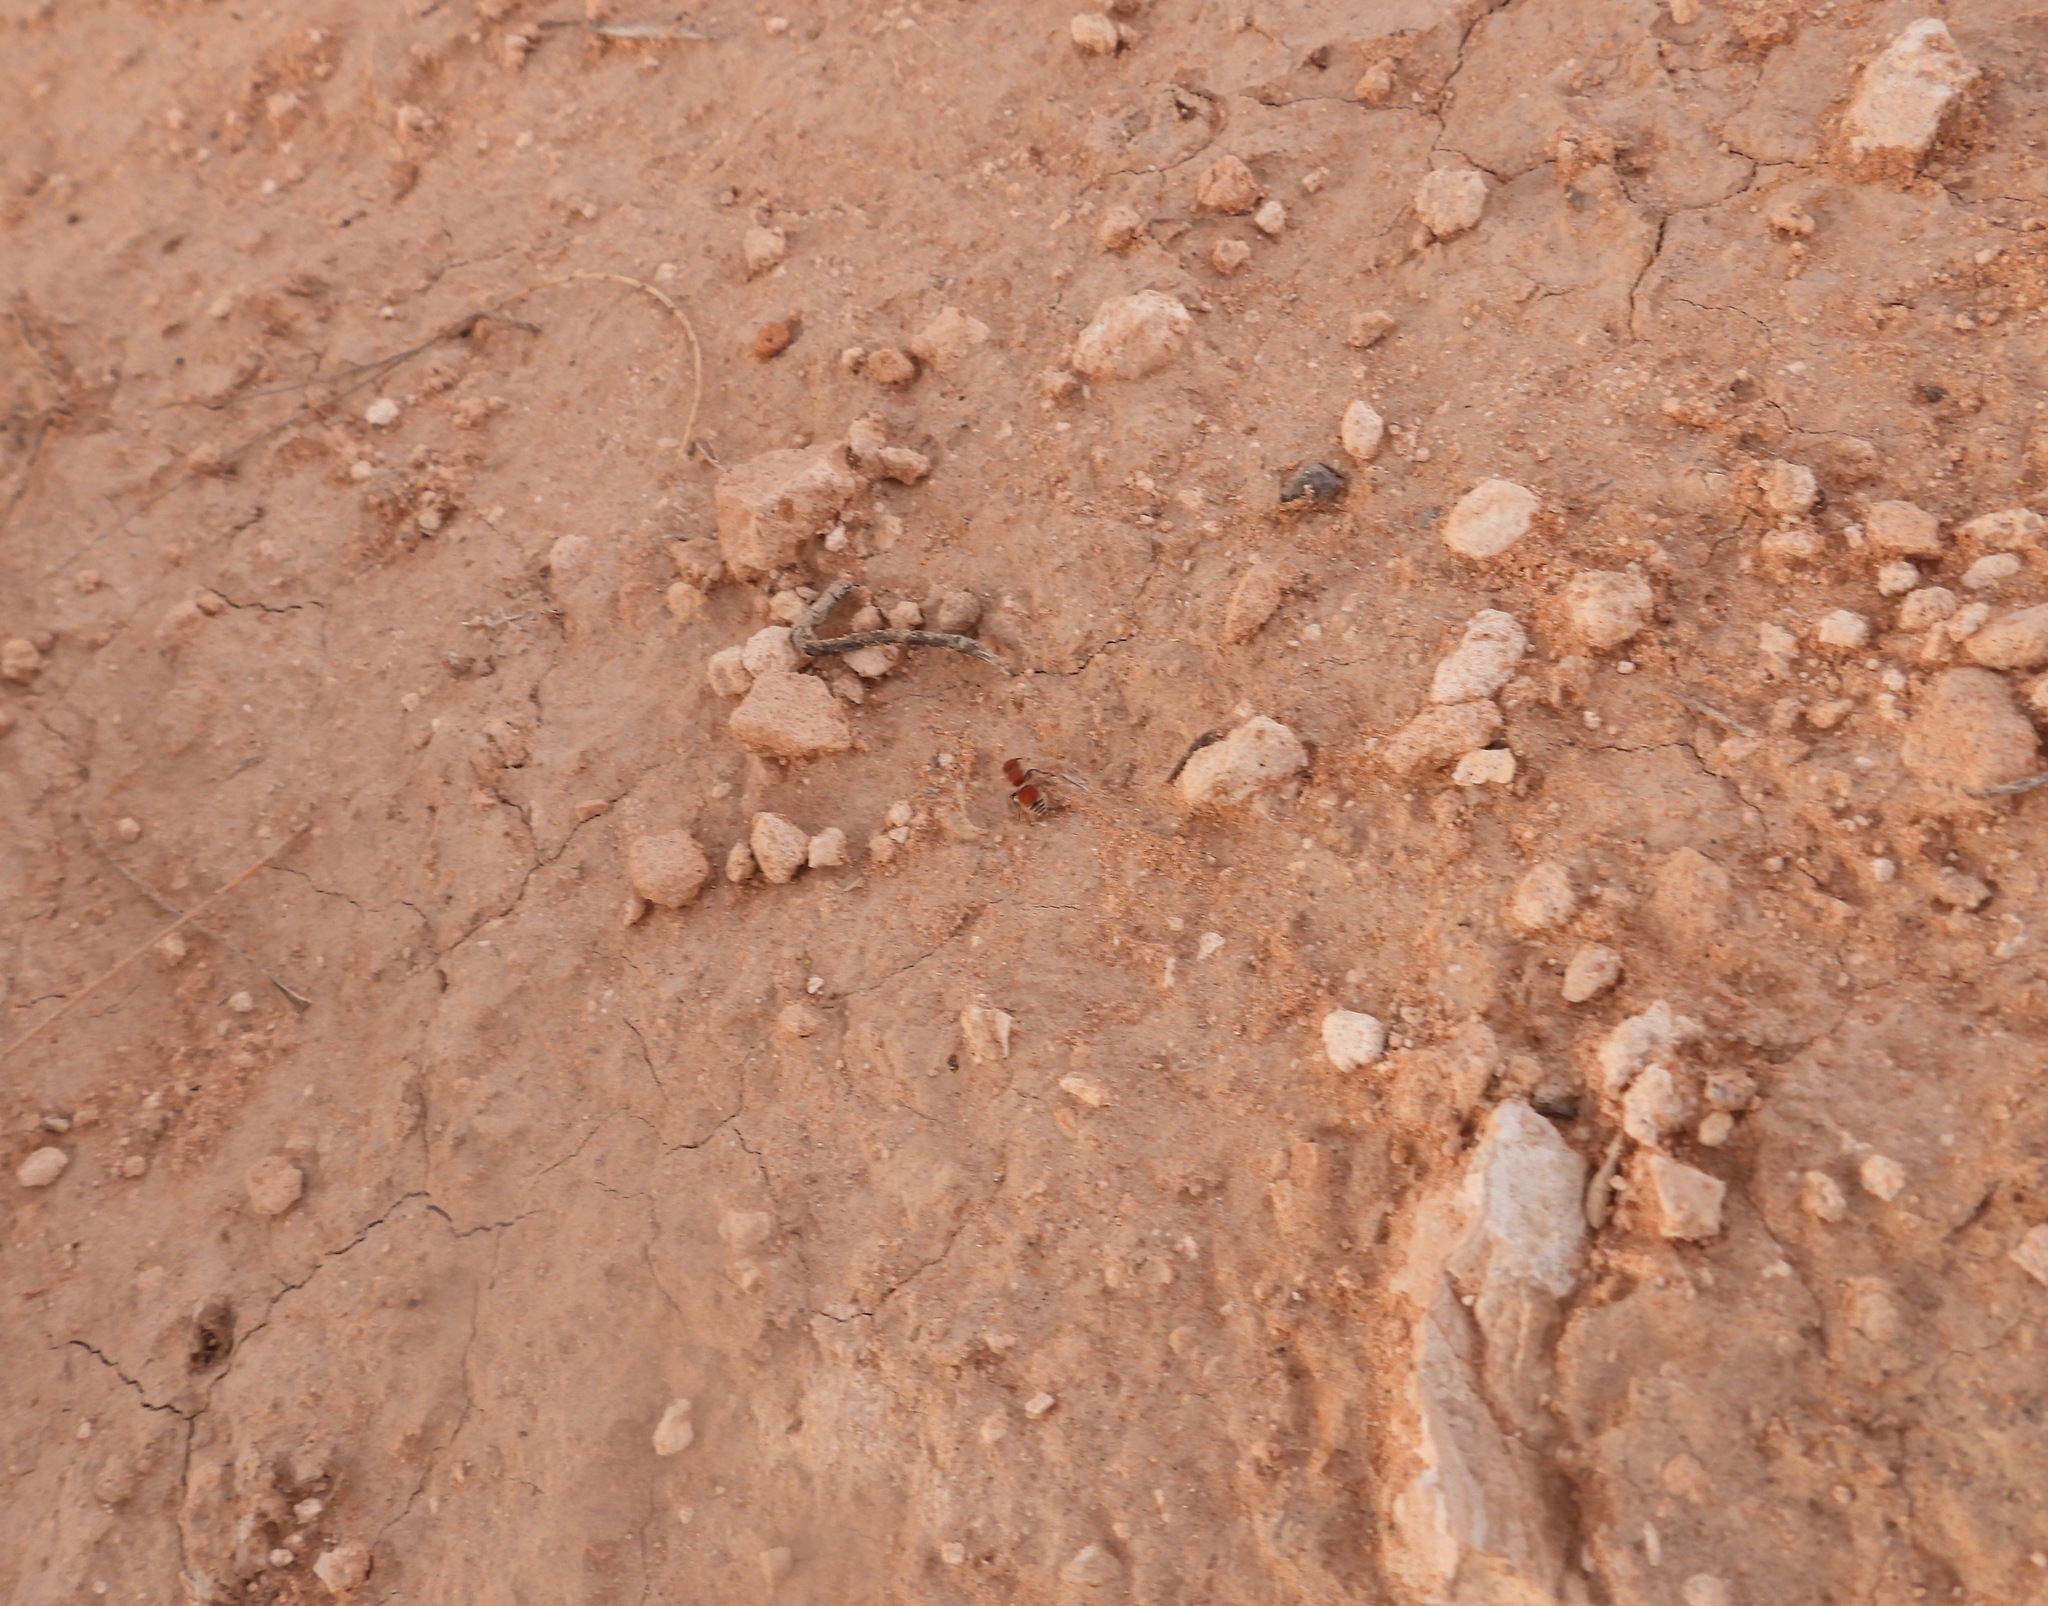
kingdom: Animalia
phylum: Arthropoda
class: Insecta
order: Hymenoptera
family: Mutillidae
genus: Pseudomethoca
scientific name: Pseudomethoca
